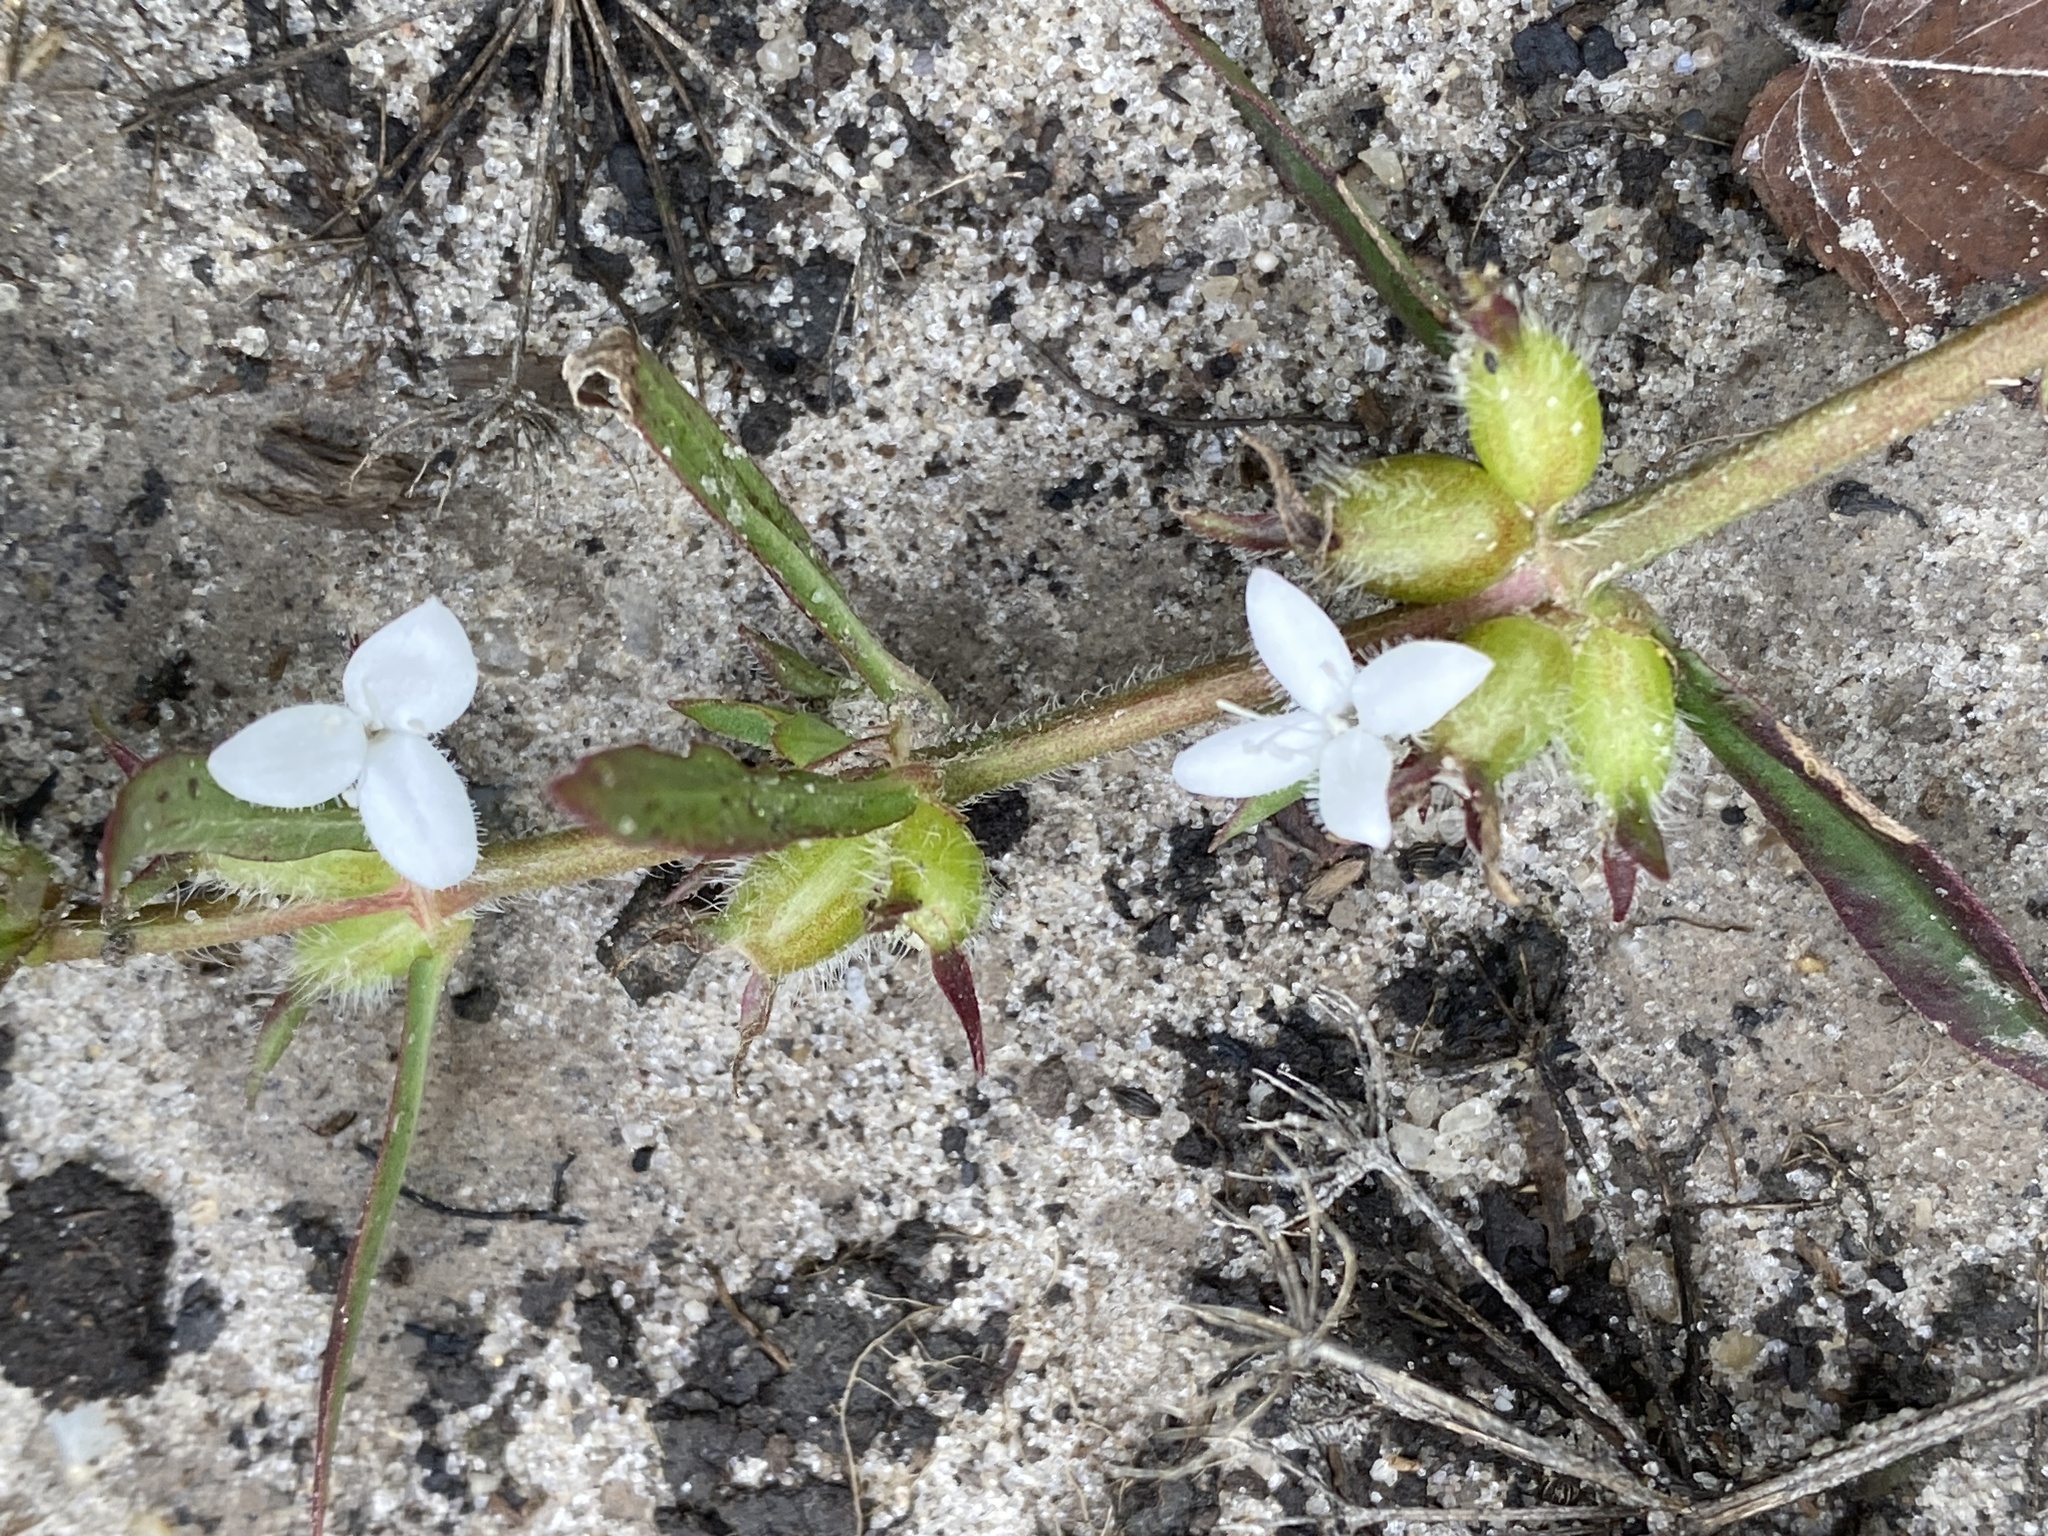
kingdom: Plantae
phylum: Tracheophyta
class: Magnoliopsida
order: Gentianales
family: Rubiaceae
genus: Diodia
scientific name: Diodia virginiana
